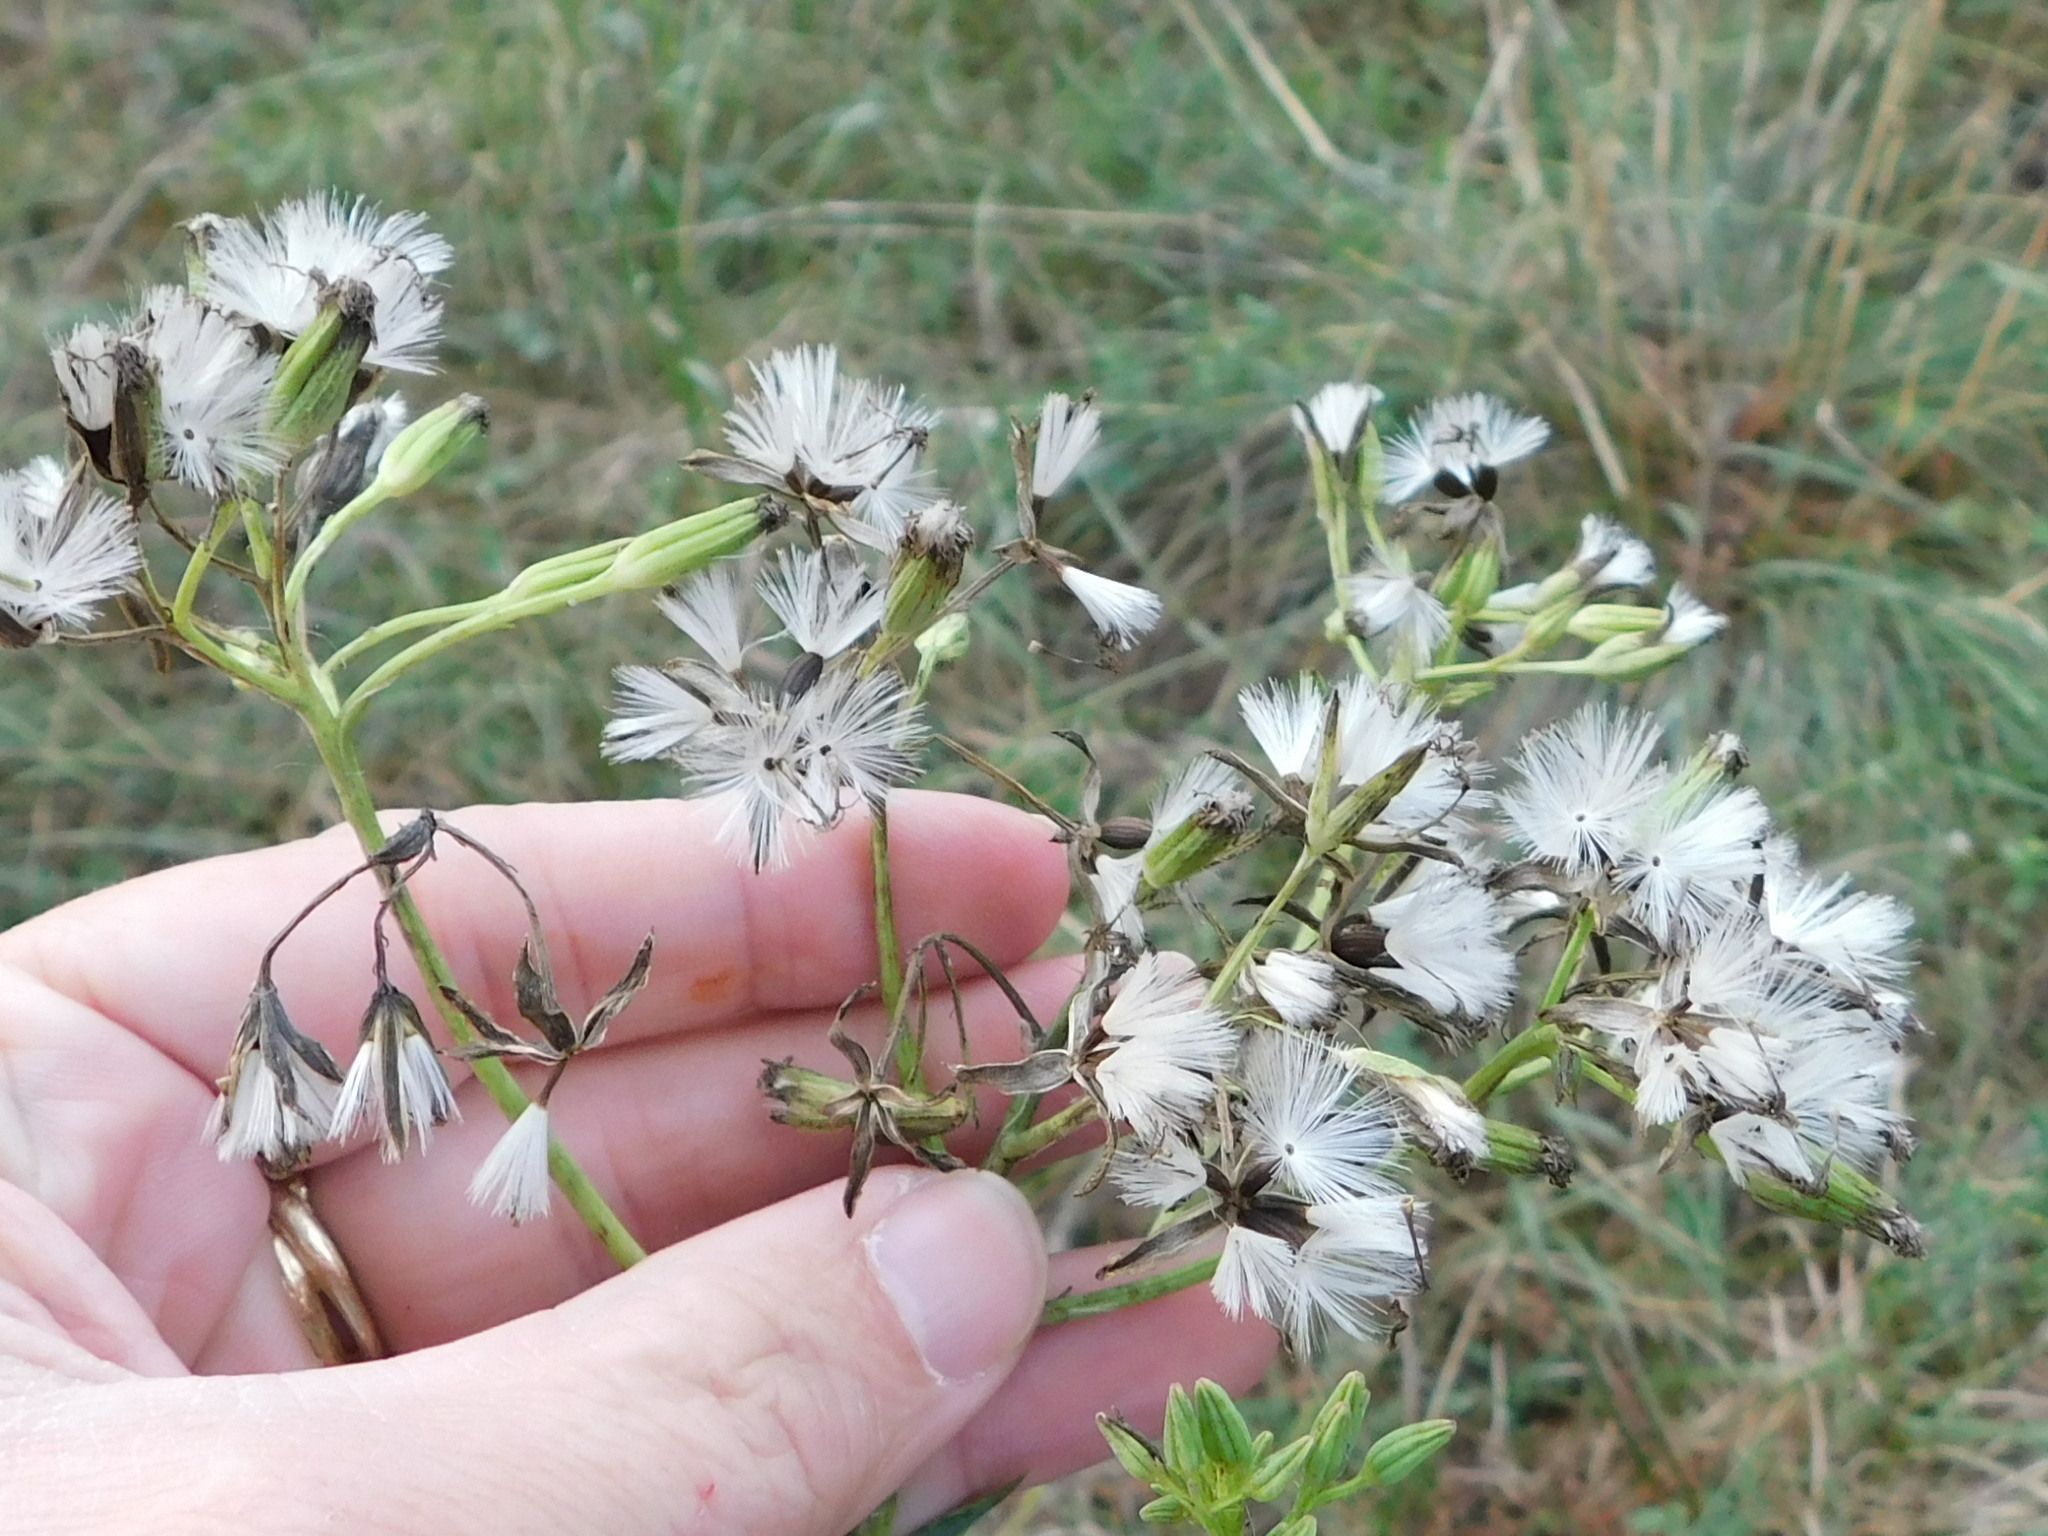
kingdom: Plantae
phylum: Tracheophyta
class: Magnoliopsida
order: Asterales
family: Asteraceae
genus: Arnoglossum
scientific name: Arnoglossum ovatum
